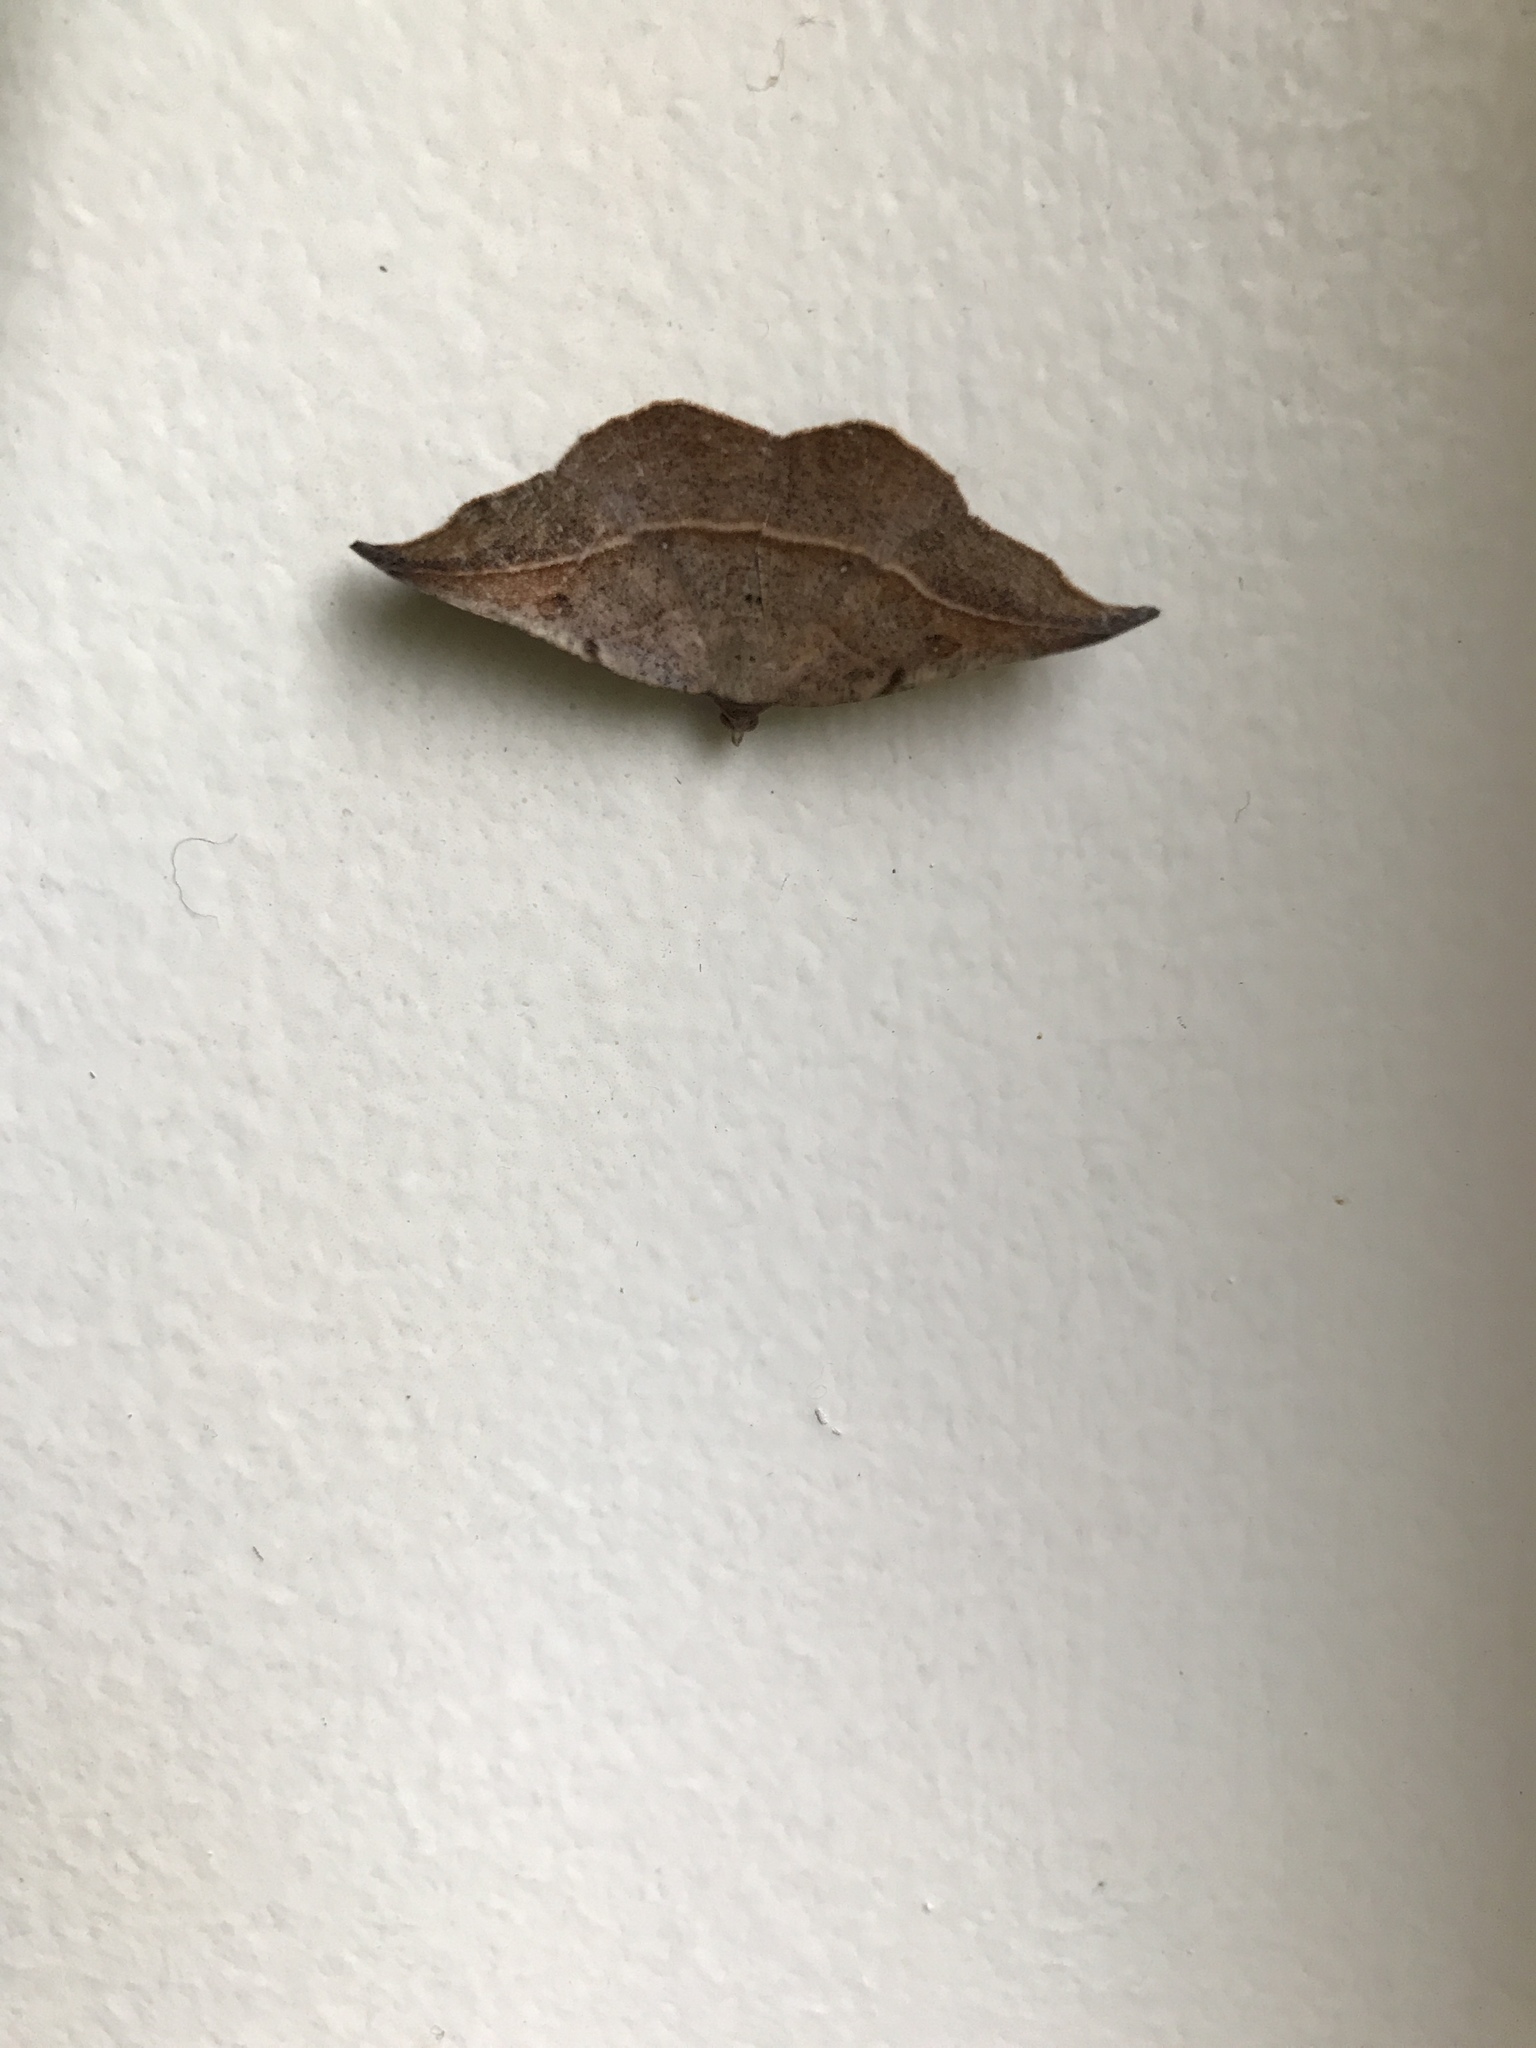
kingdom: Animalia
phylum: Arthropoda
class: Insecta
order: Lepidoptera
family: Geometridae
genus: Sarisa
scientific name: Sarisa muriferata
